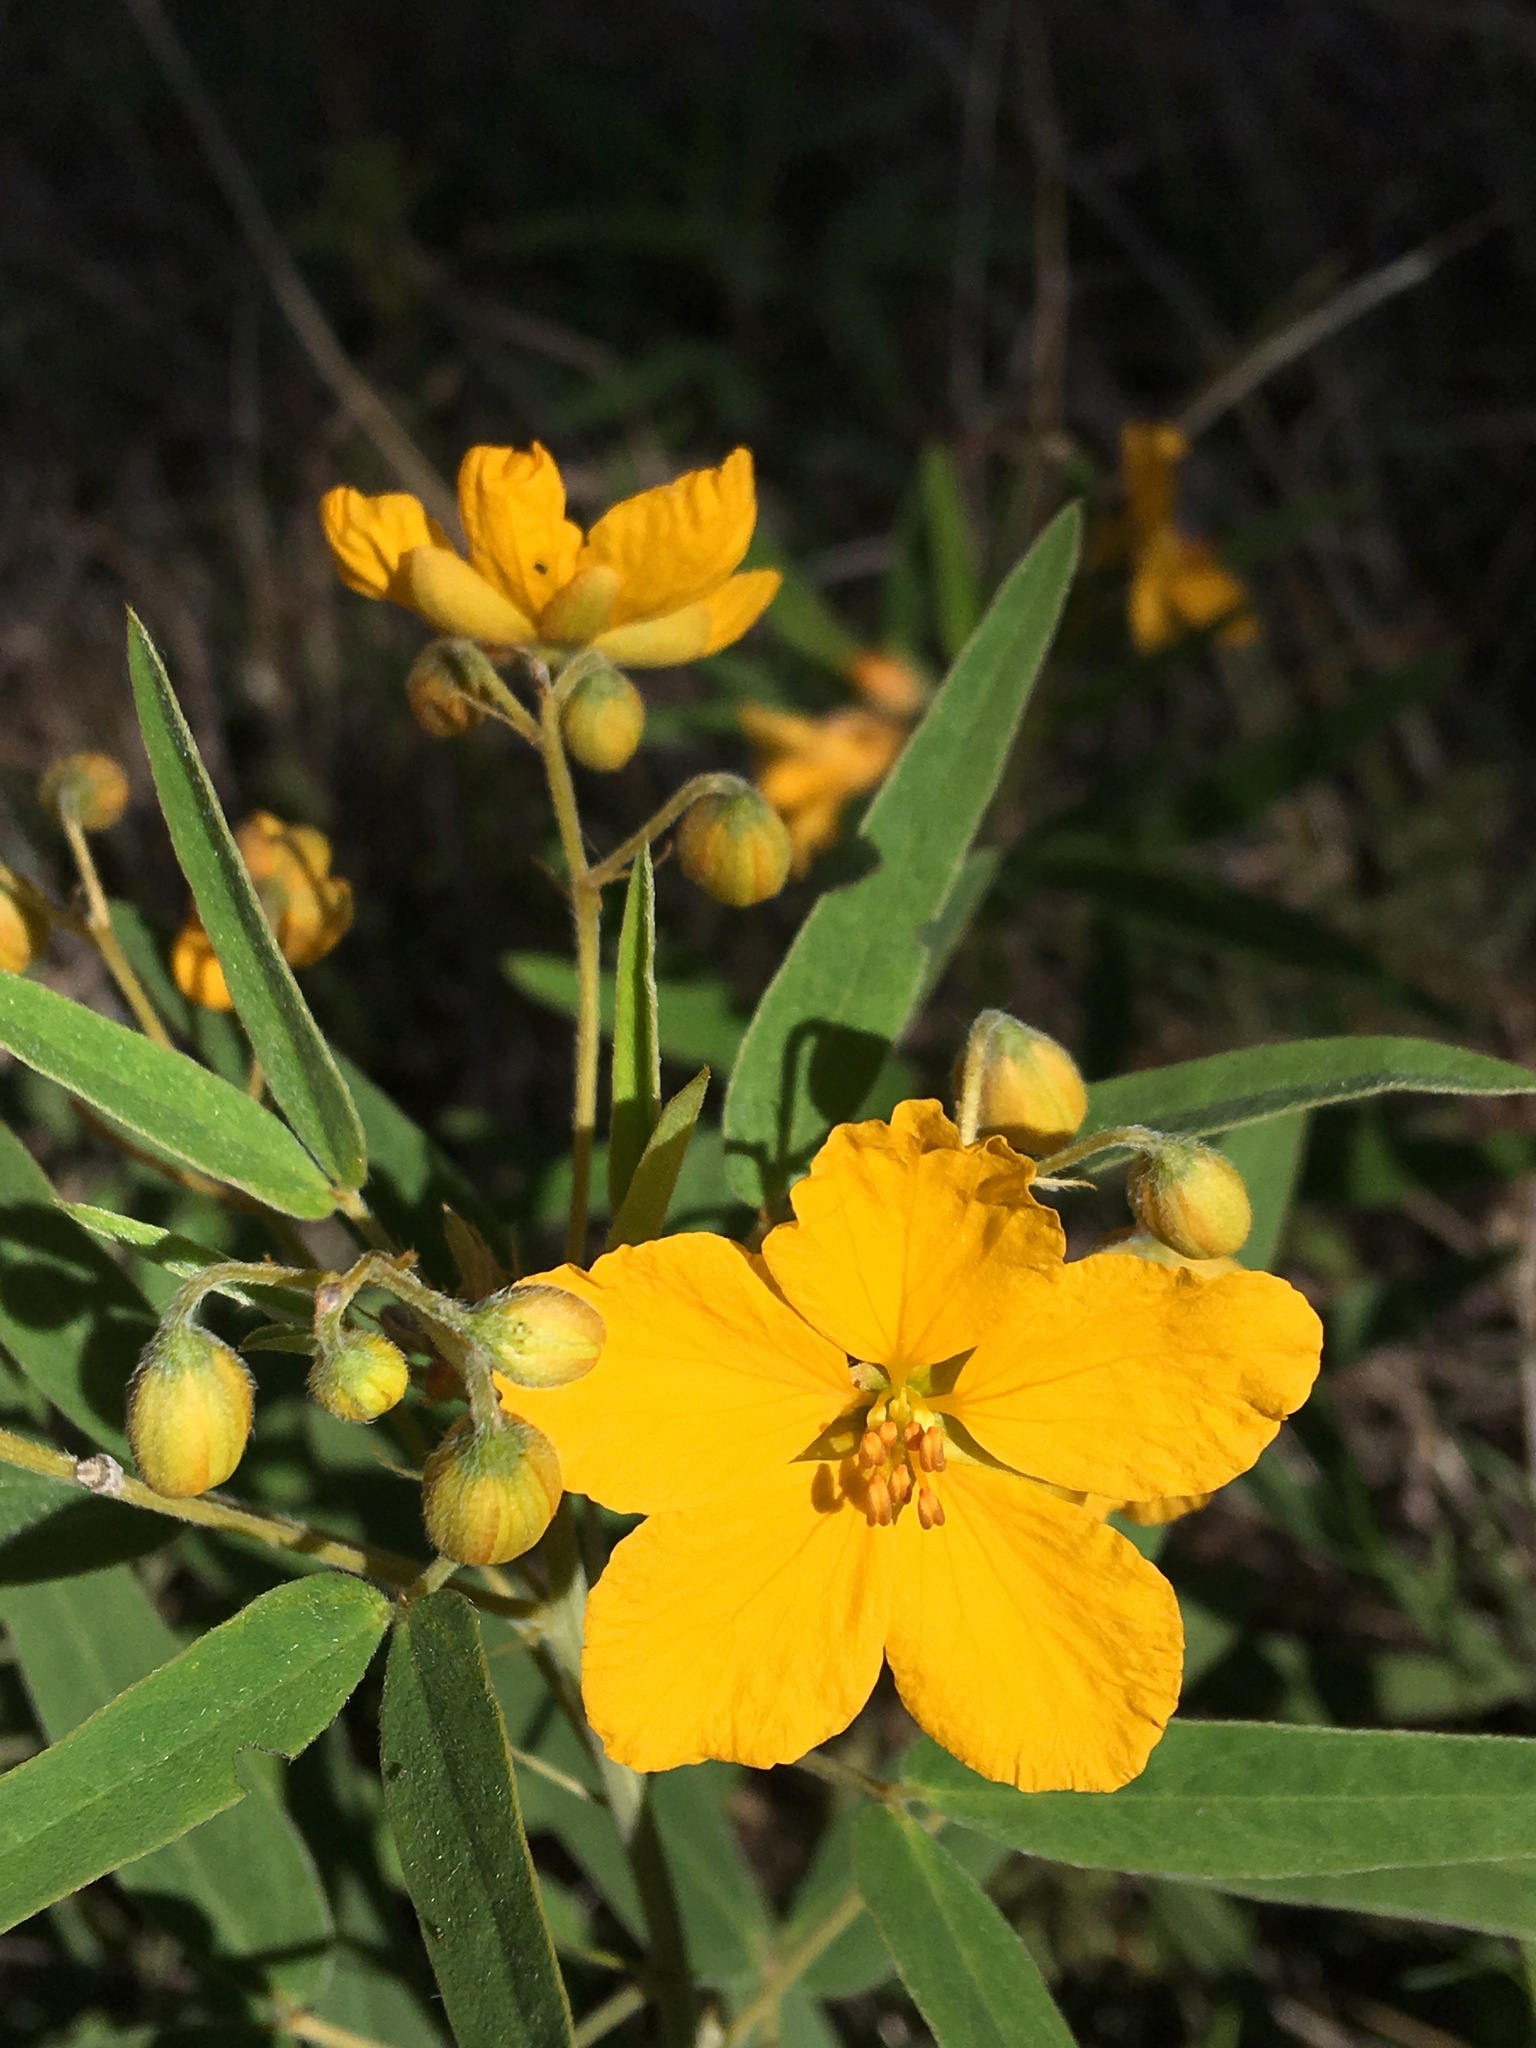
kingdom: Plantae
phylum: Tracheophyta
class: Magnoliopsida
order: Fabales
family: Fabaceae
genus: Senna
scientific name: Senna roemeriana
